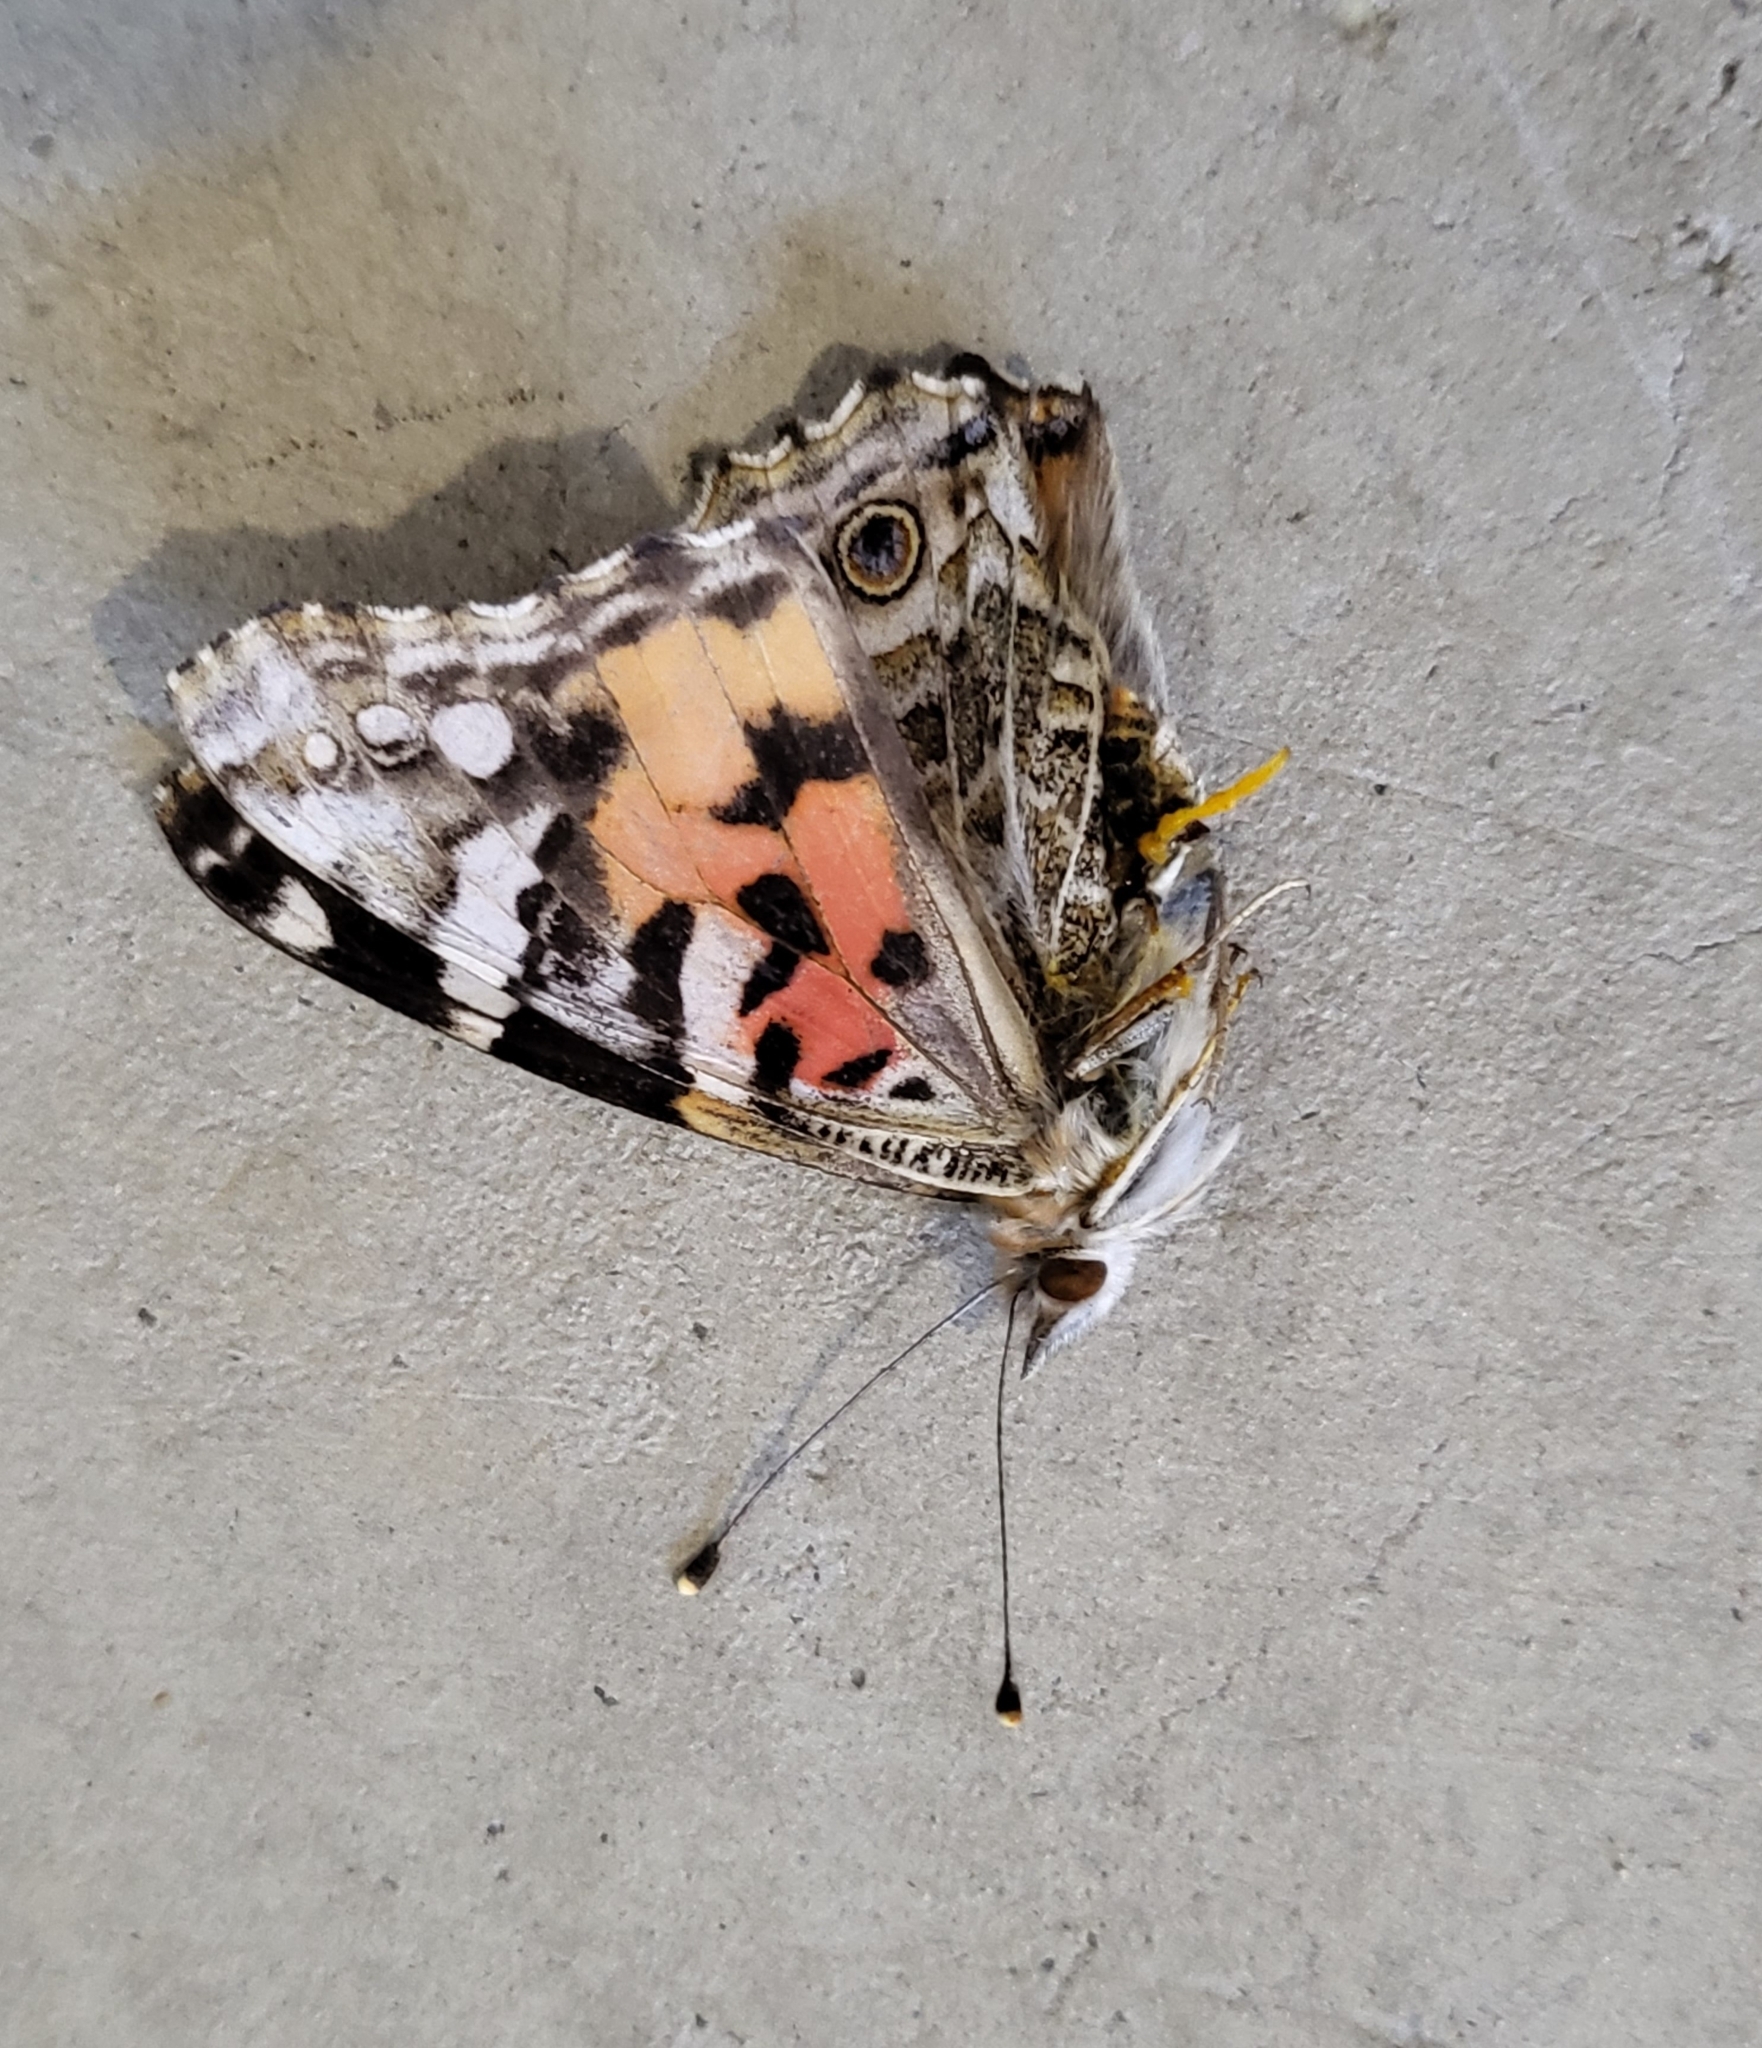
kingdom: Animalia
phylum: Arthropoda
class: Insecta
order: Lepidoptera
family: Nymphalidae
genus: Vanessa
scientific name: Vanessa cardui
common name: Painted lady
